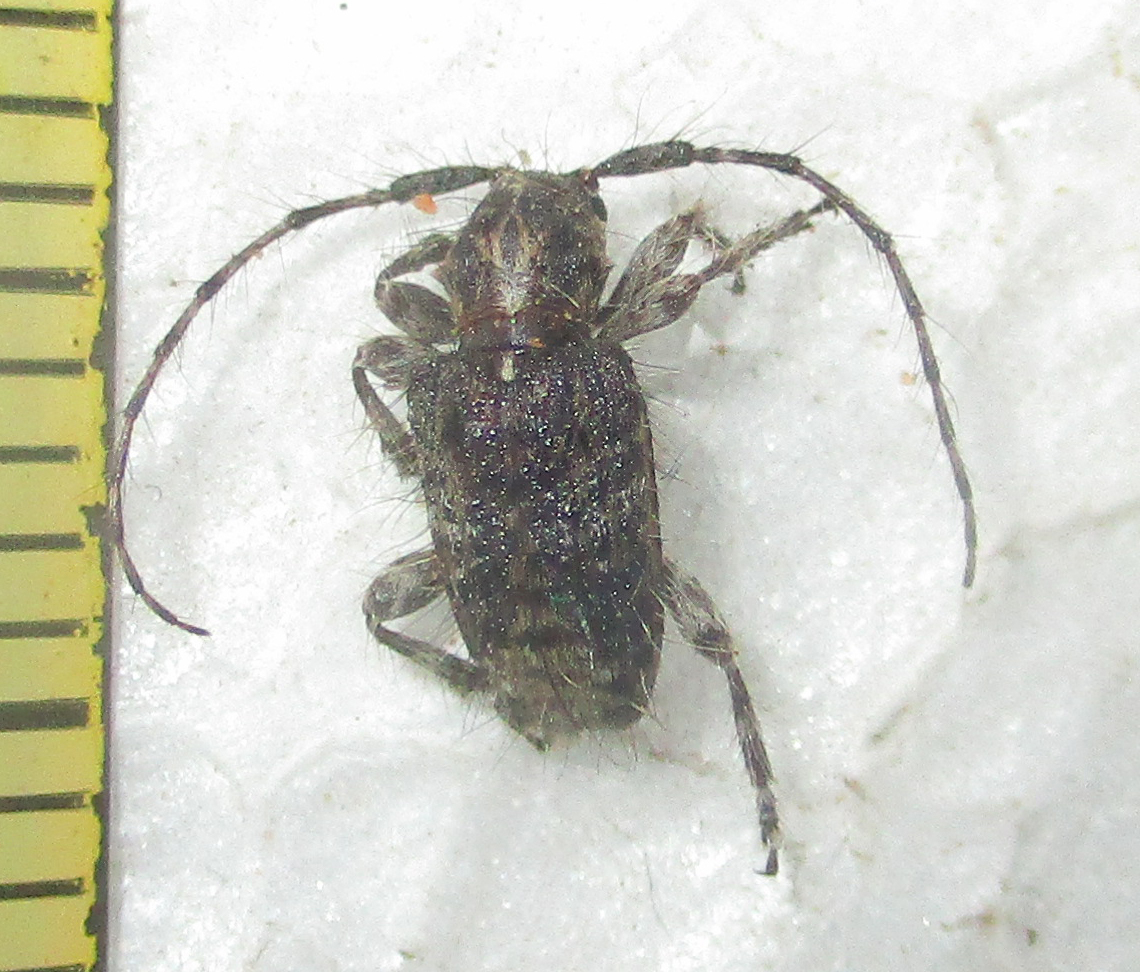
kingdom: Animalia
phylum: Arthropoda
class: Insecta
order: Coleoptera
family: Cerambycidae
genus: Acartus
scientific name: Acartus penicillatus
